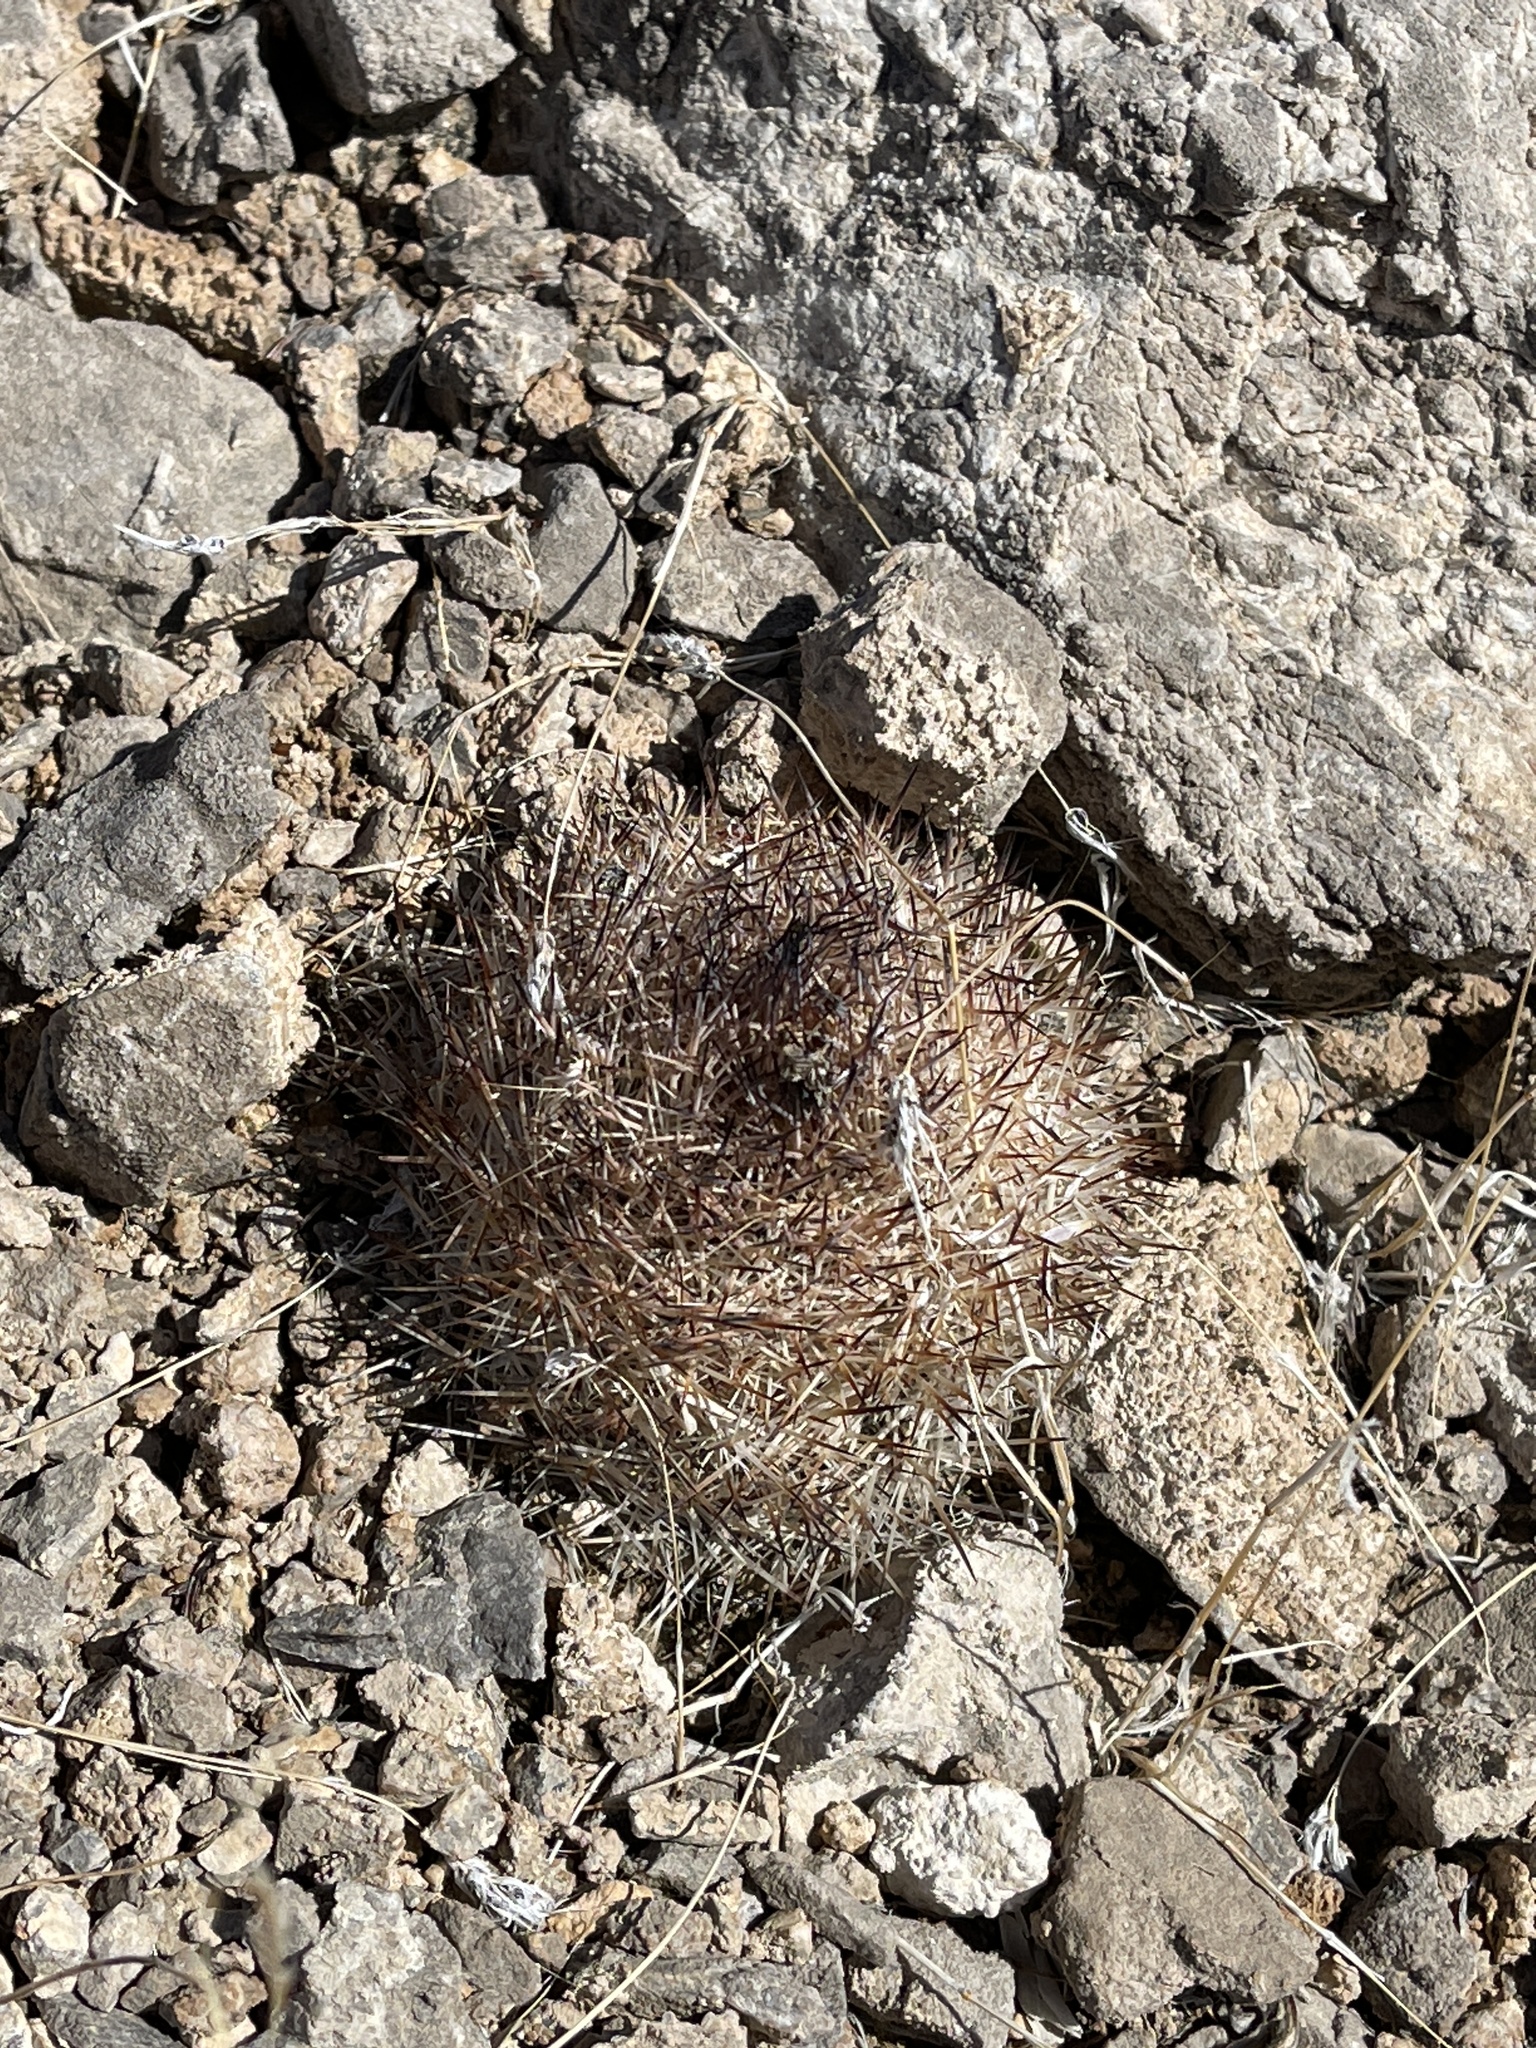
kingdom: Plantae
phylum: Tracheophyta
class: Magnoliopsida
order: Caryophyllales
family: Cactaceae
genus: Pelecyphora
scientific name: Pelecyphora vivipara
